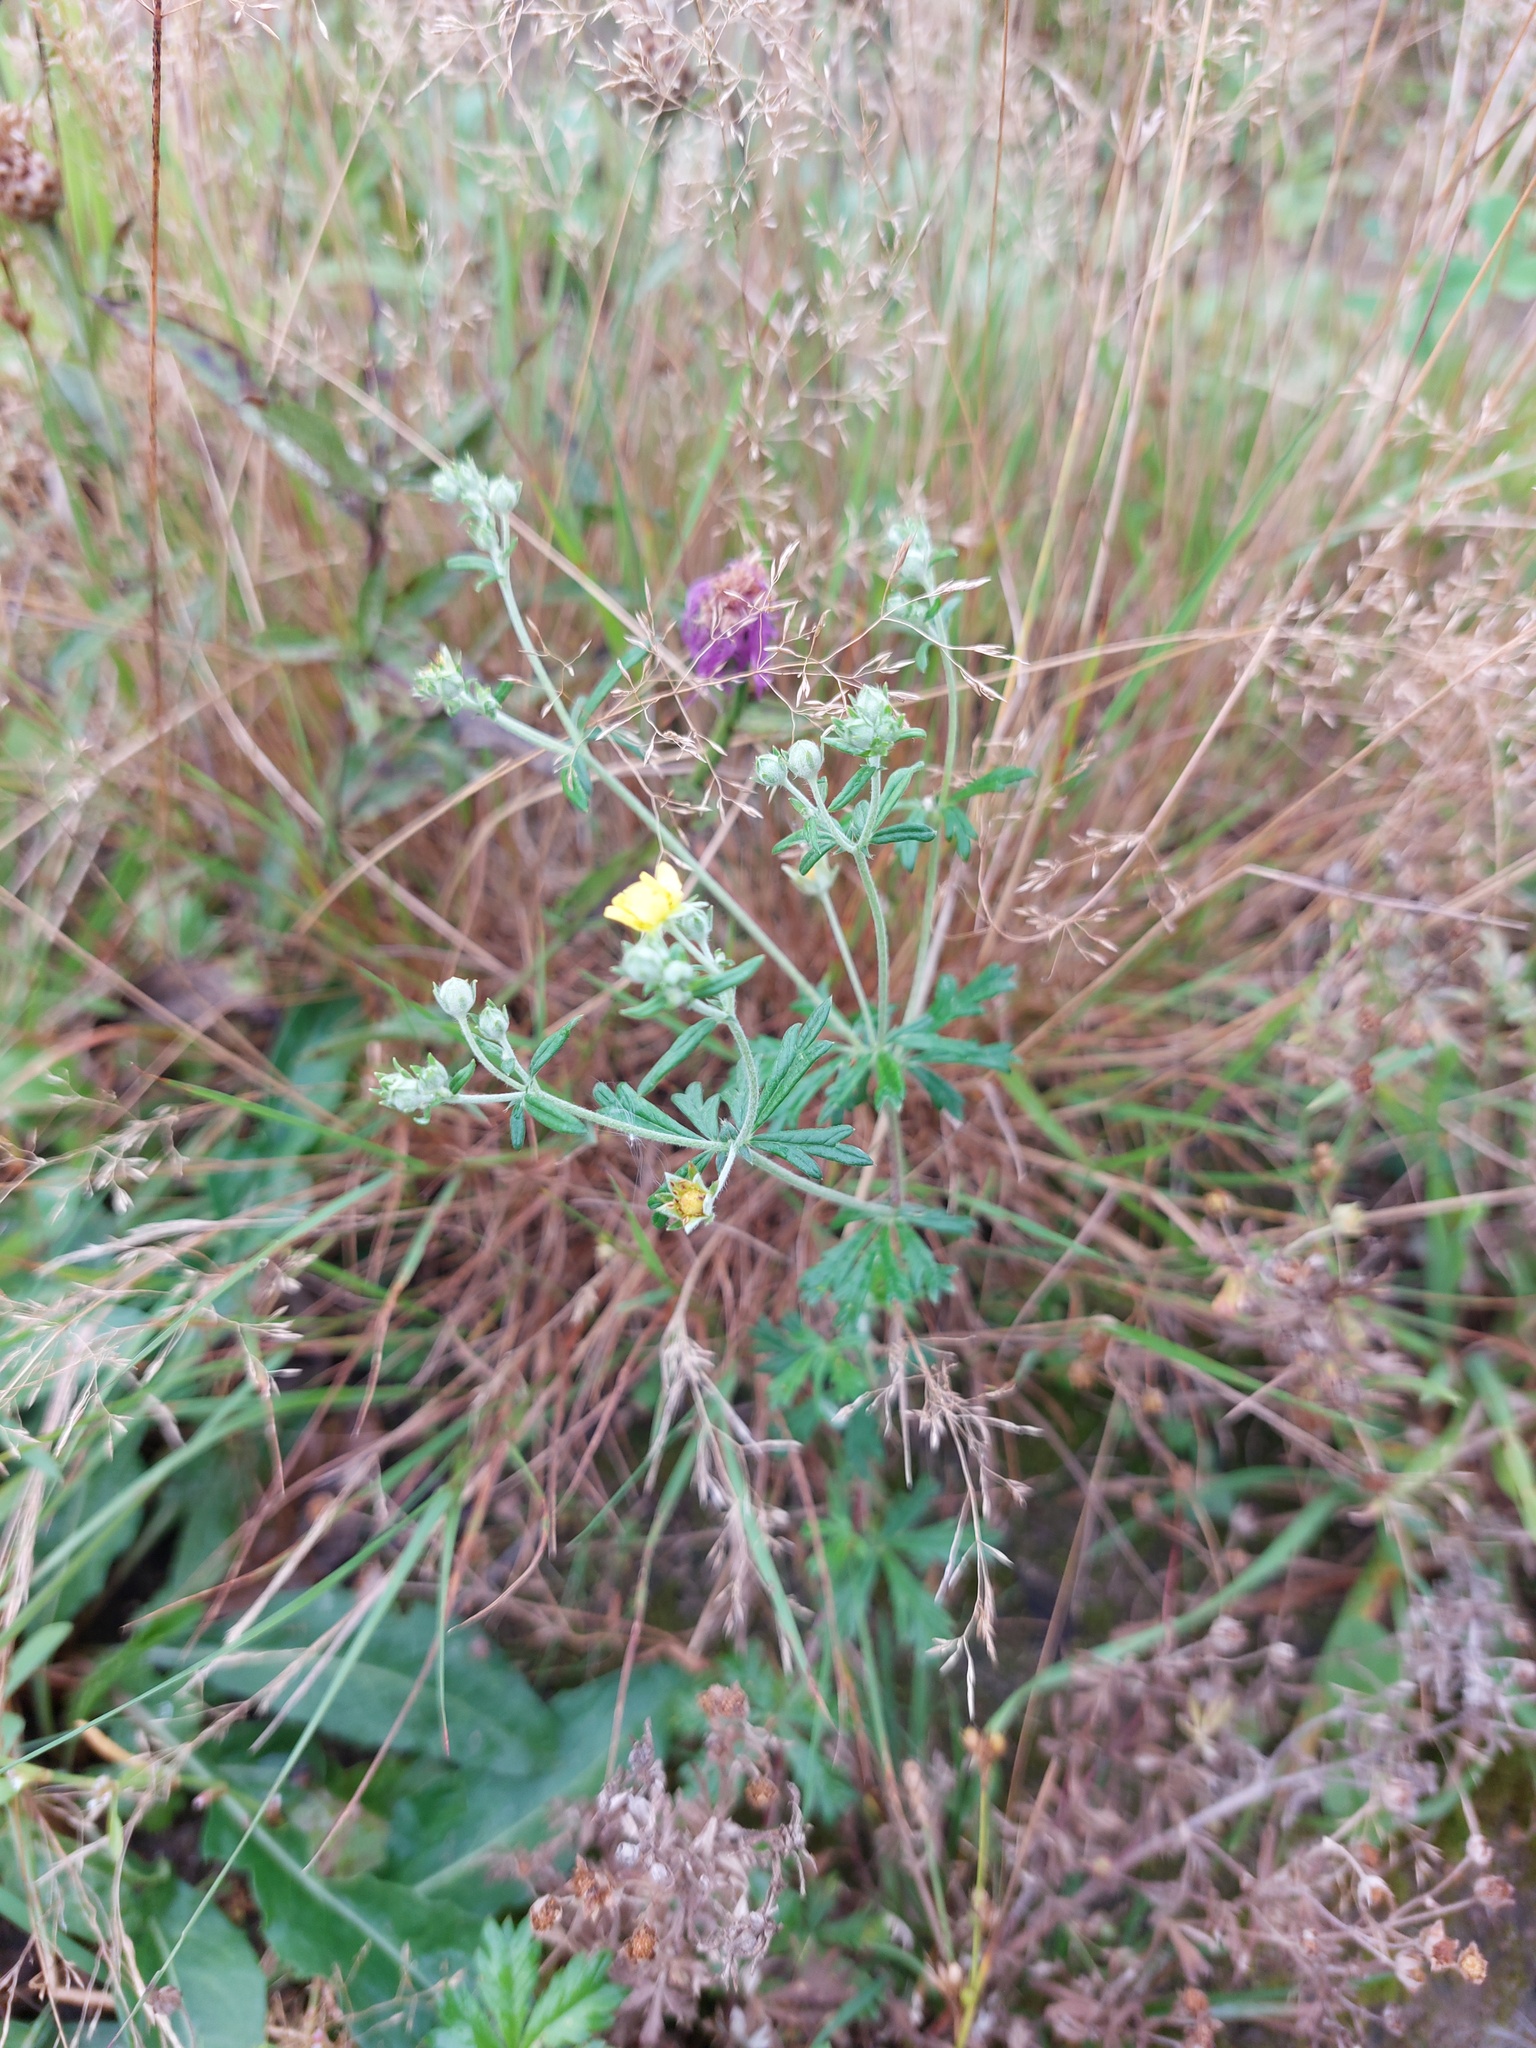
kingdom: Plantae
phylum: Tracheophyta
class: Magnoliopsida
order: Rosales
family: Rosaceae
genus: Potentilla
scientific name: Potentilla argentea
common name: Hoary cinquefoil
